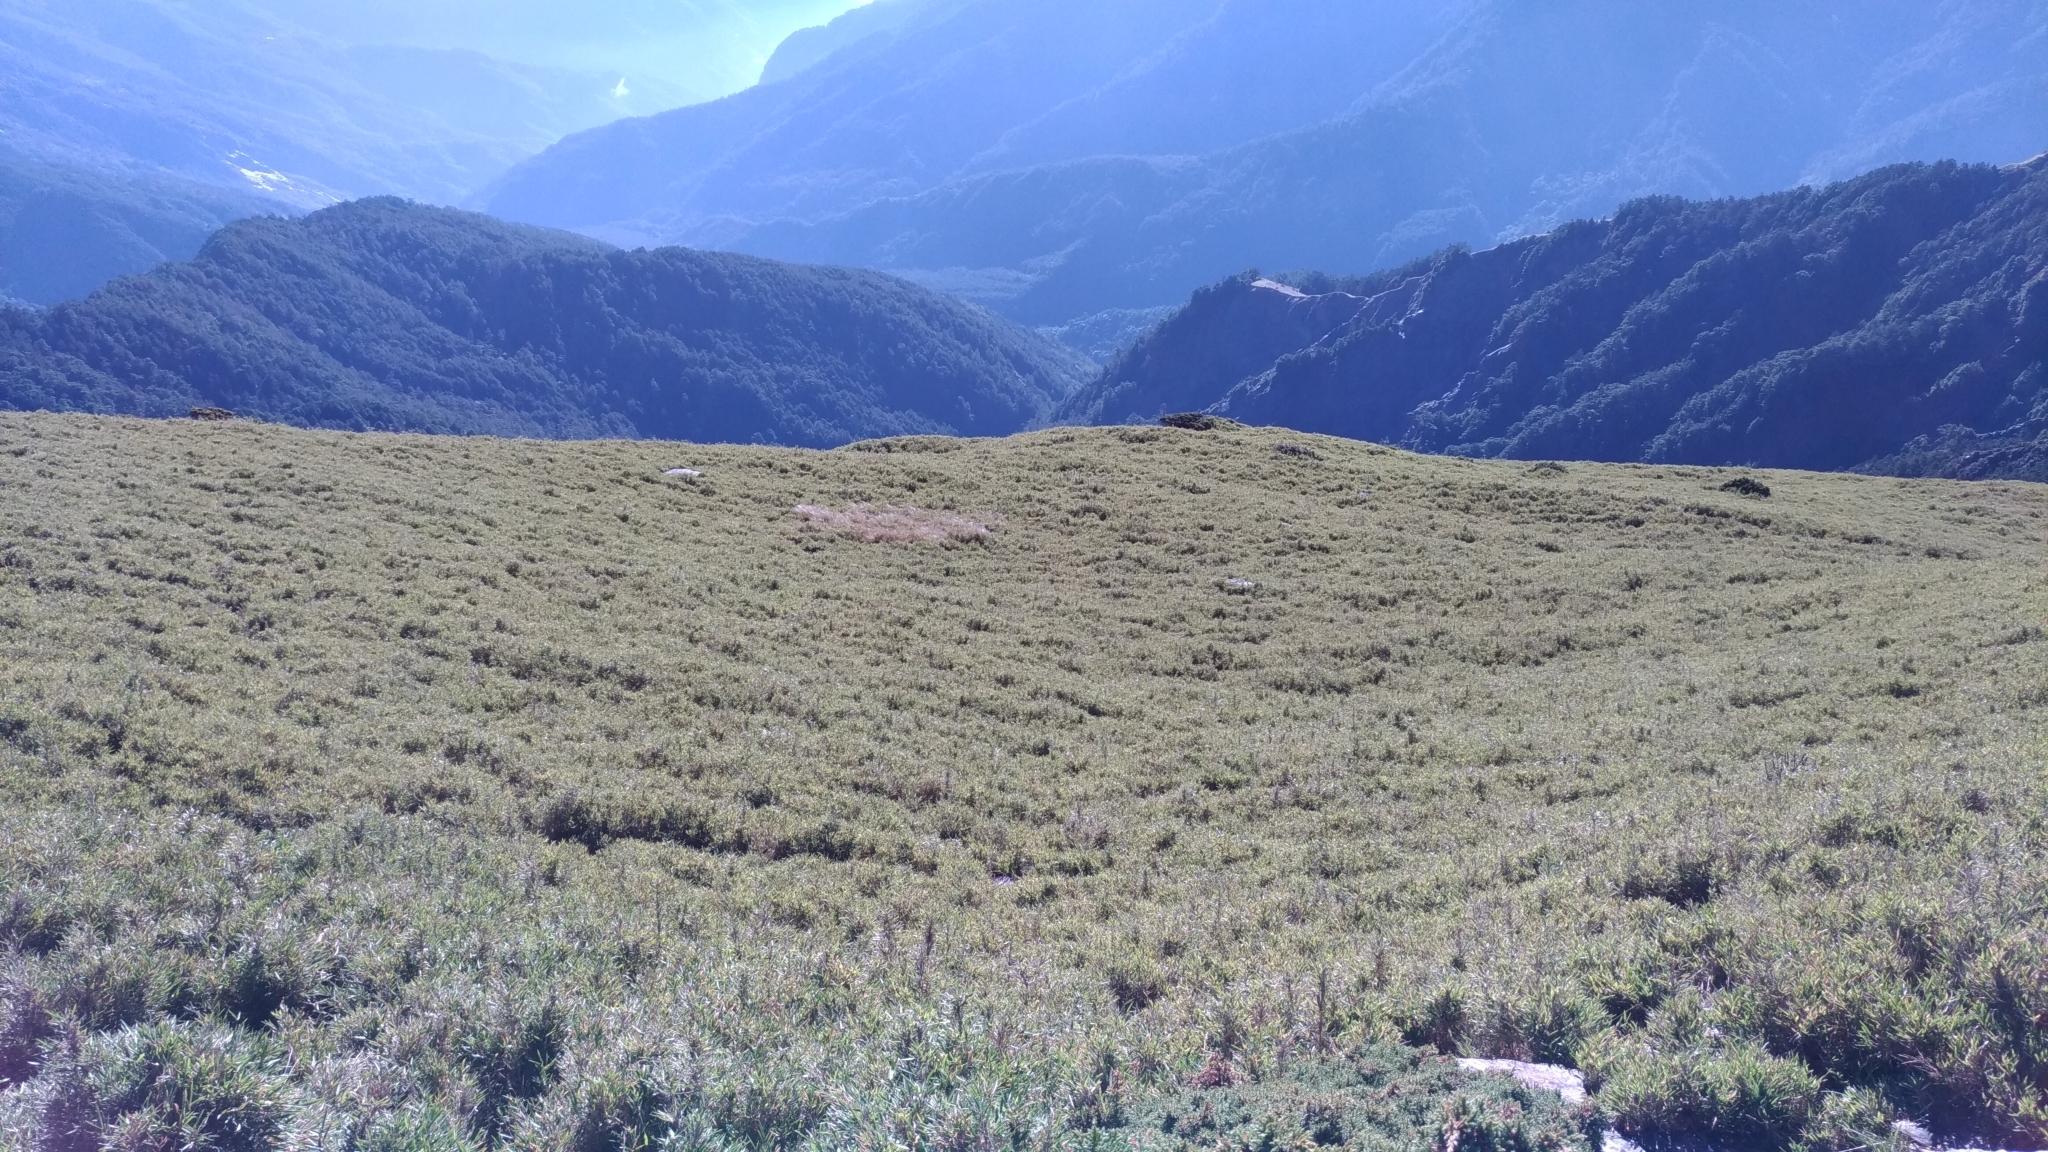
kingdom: Plantae
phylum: Tracheophyta
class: Liliopsida
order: Poales
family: Poaceae
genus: Yushania
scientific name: Yushania niitakayamensis
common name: Yushan cane
